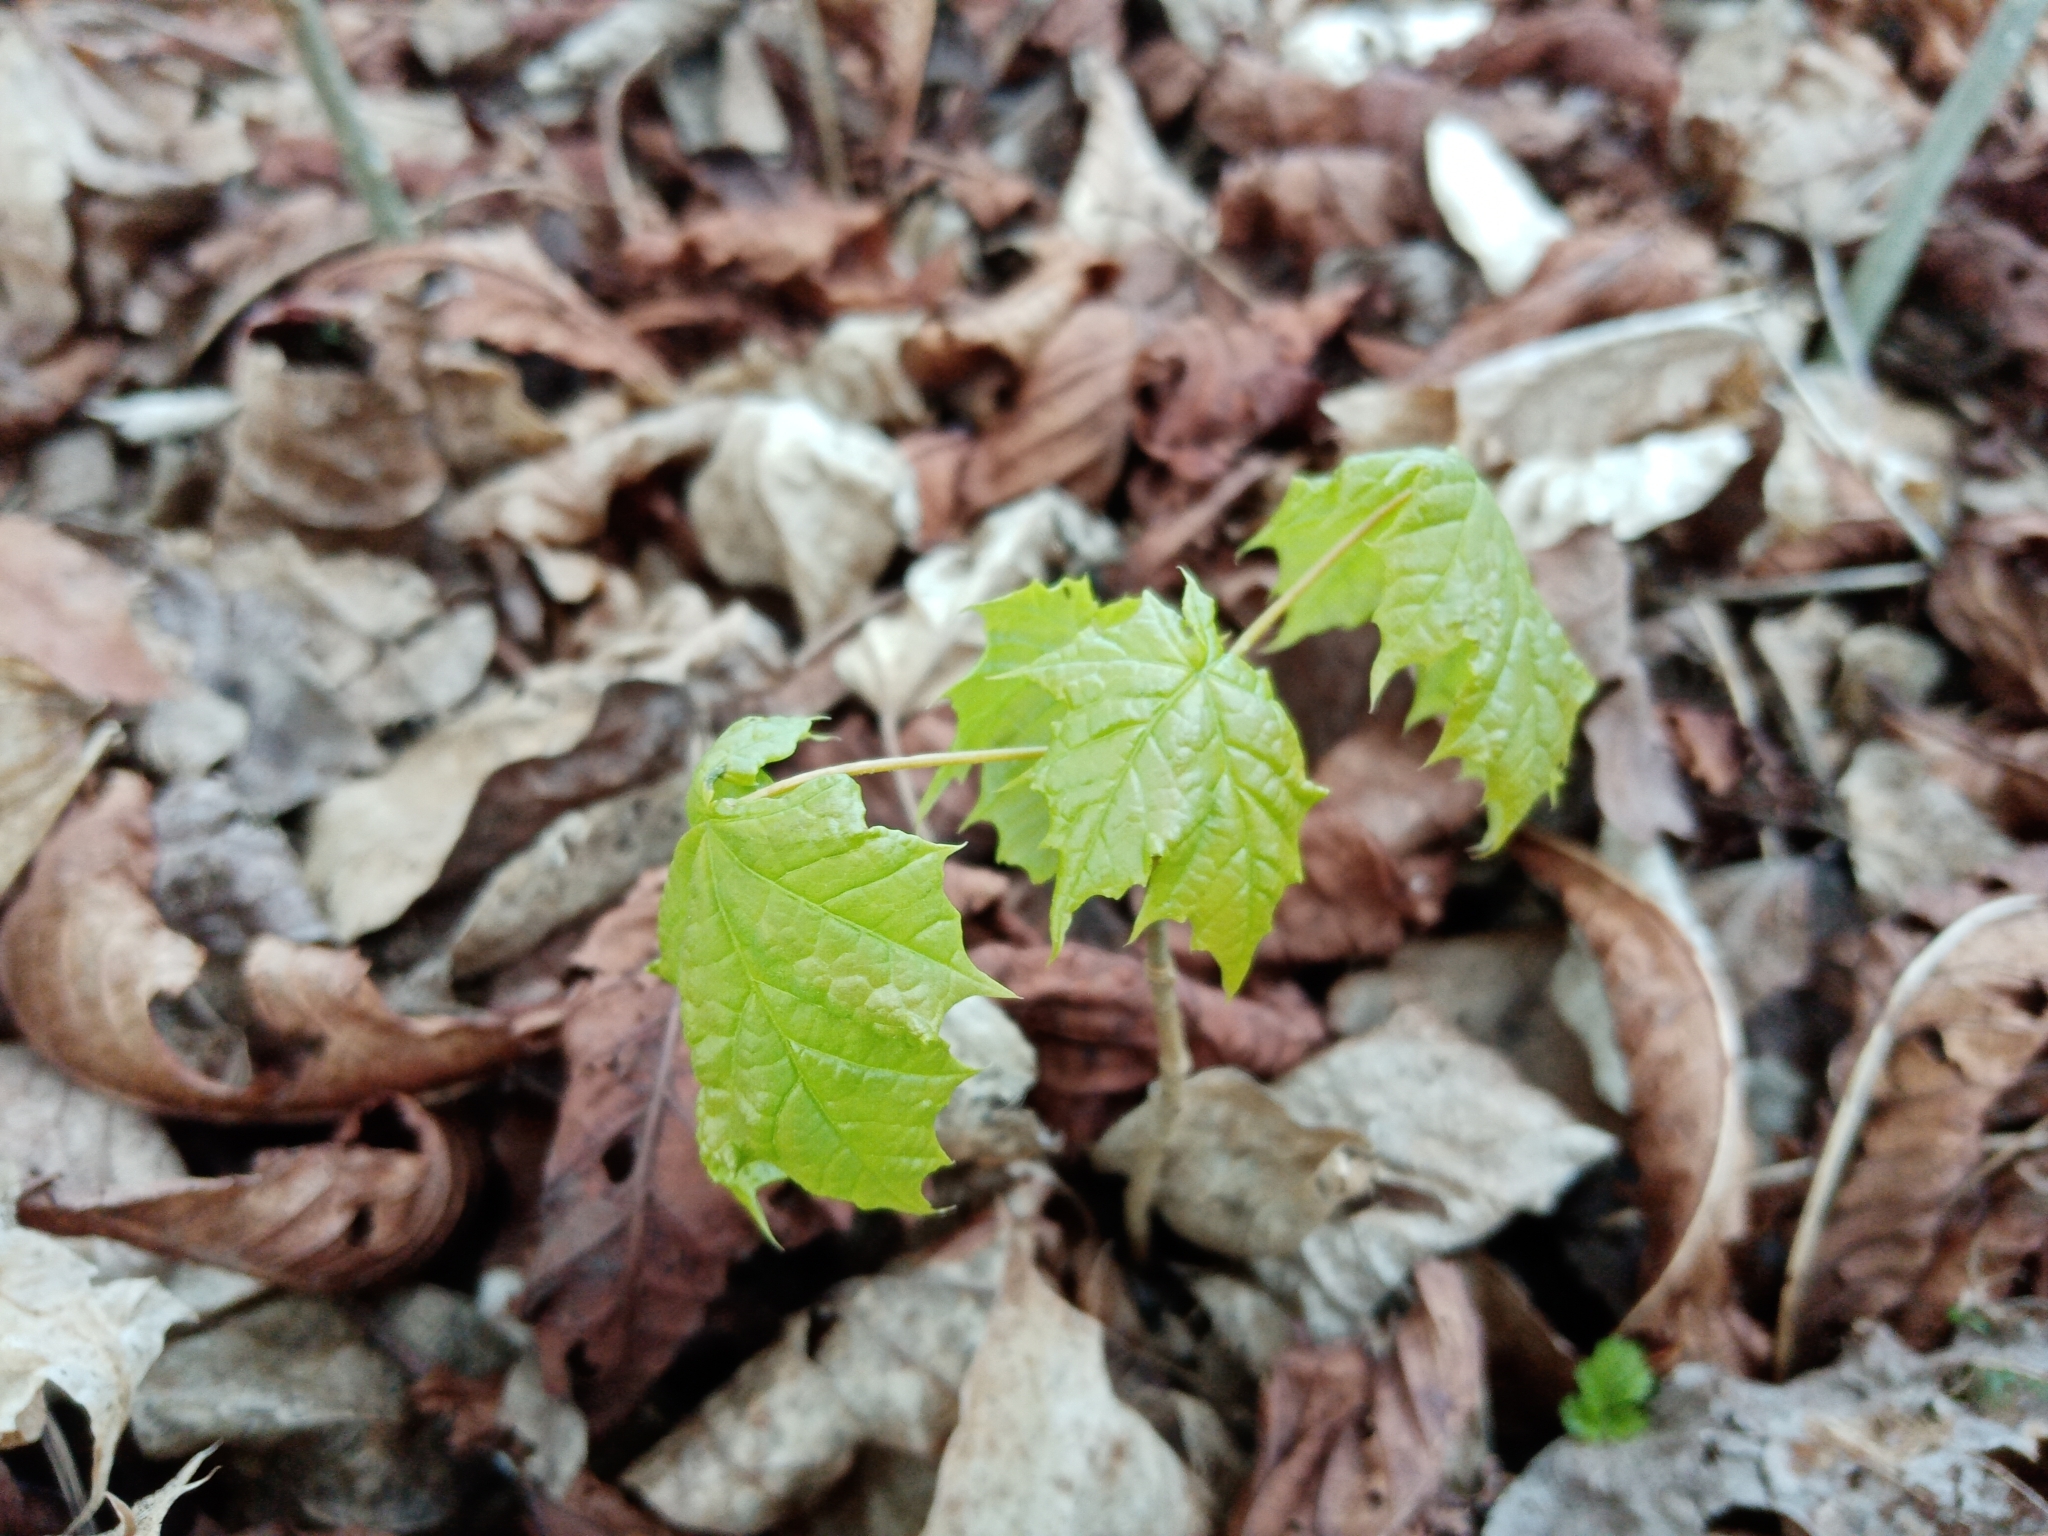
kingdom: Plantae
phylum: Tracheophyta
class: Magnoliopsida
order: Sapindales
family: Sapindaceae
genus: Acer
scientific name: Acer platanoides
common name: Norway maple
